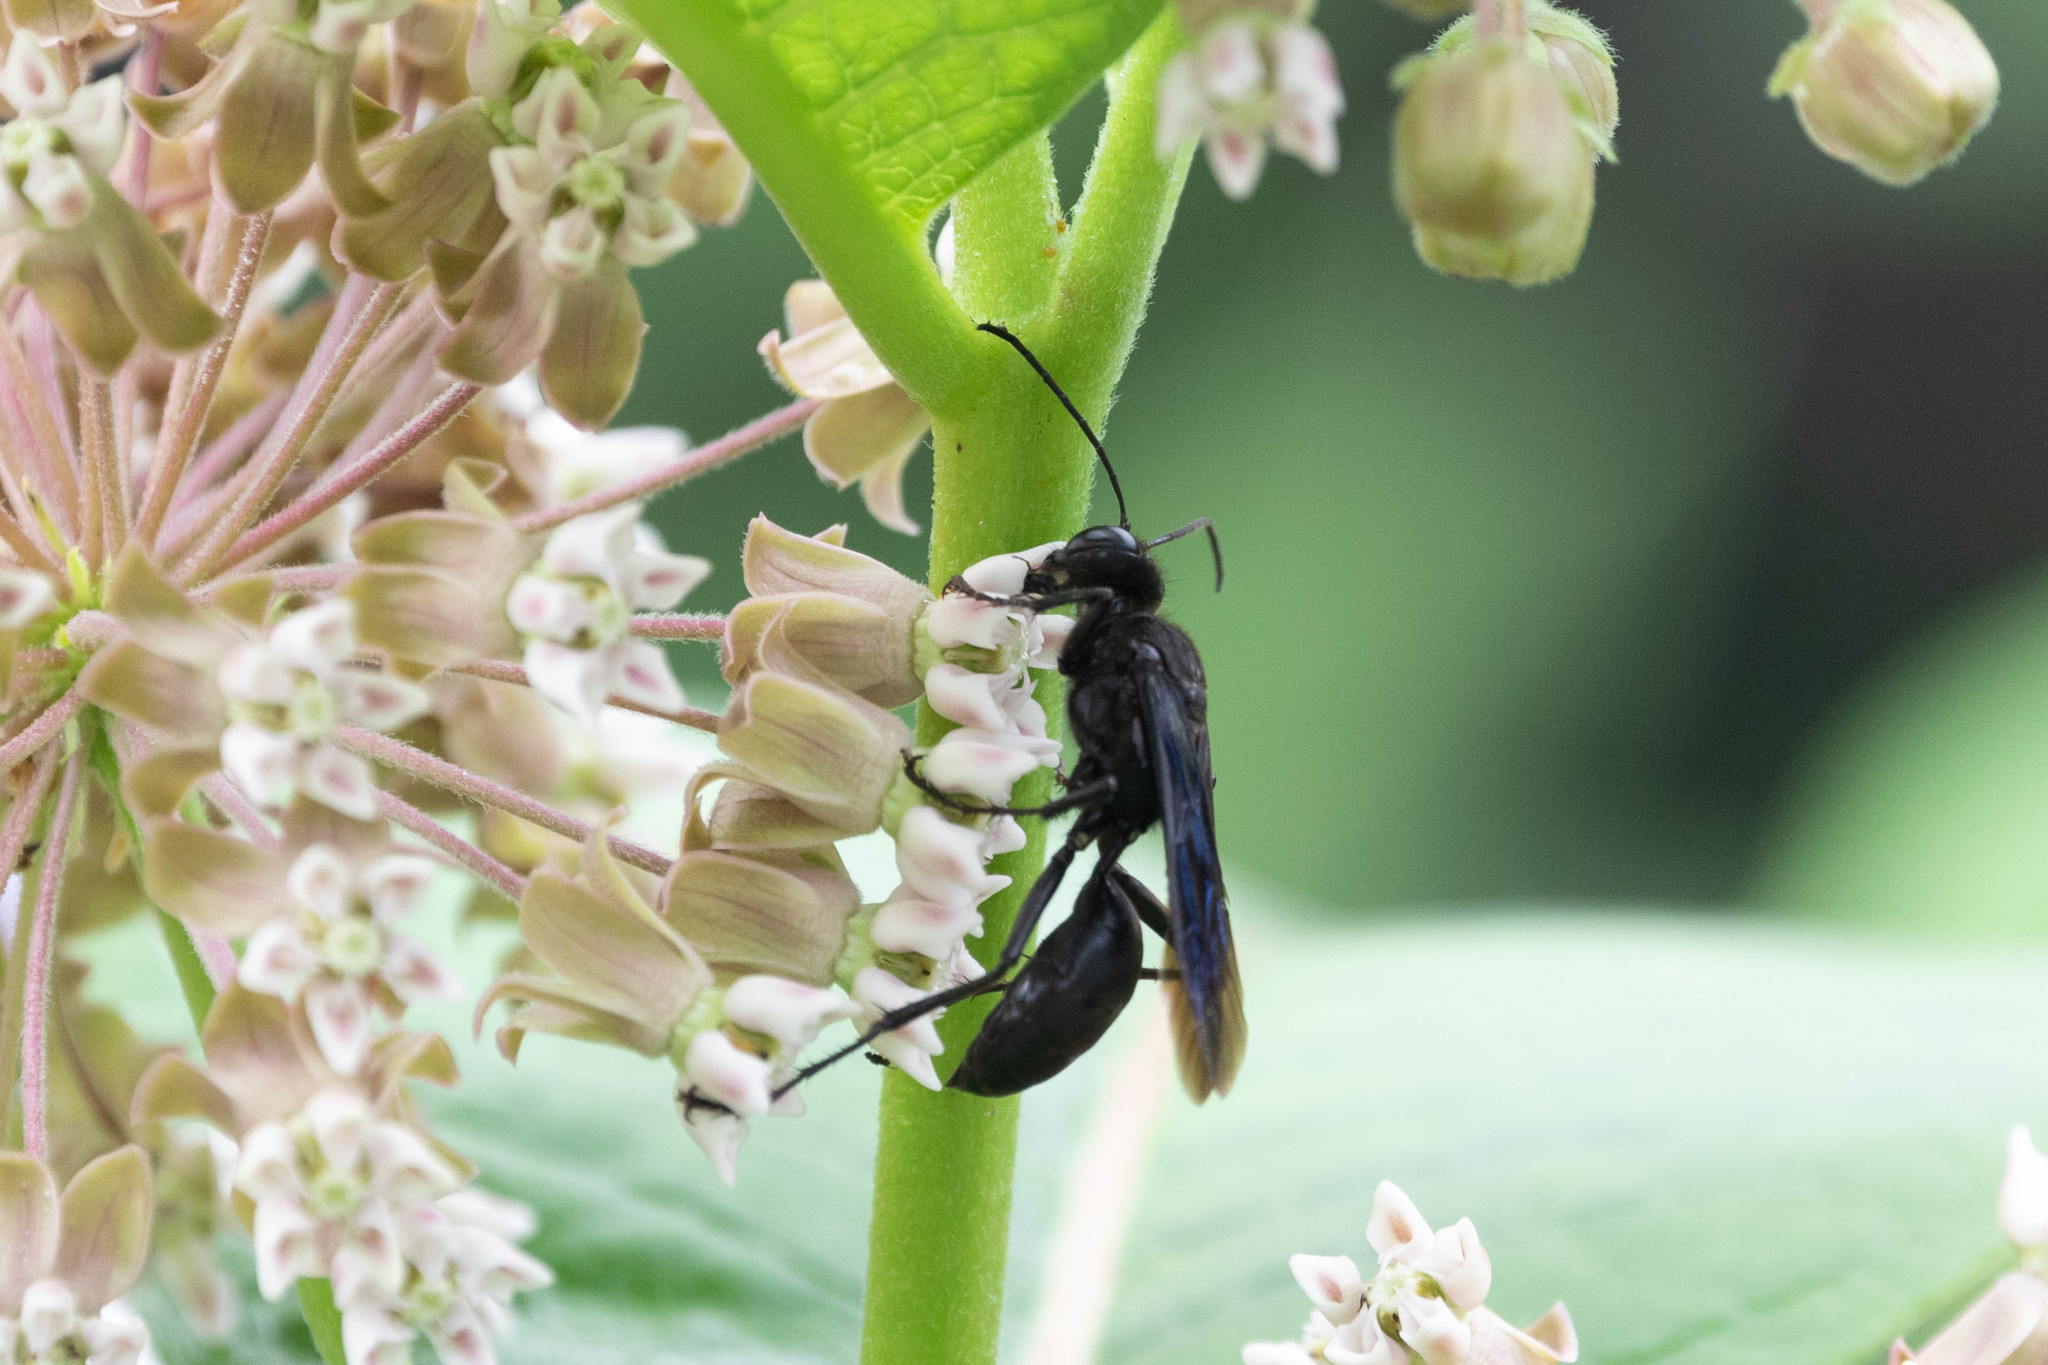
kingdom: Animalia
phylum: Arthropoda
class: Insecta
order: Hymenoptera
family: Sphecidae
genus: Sphex
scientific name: Sphex pensylvanicus
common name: Great black digger wasp
